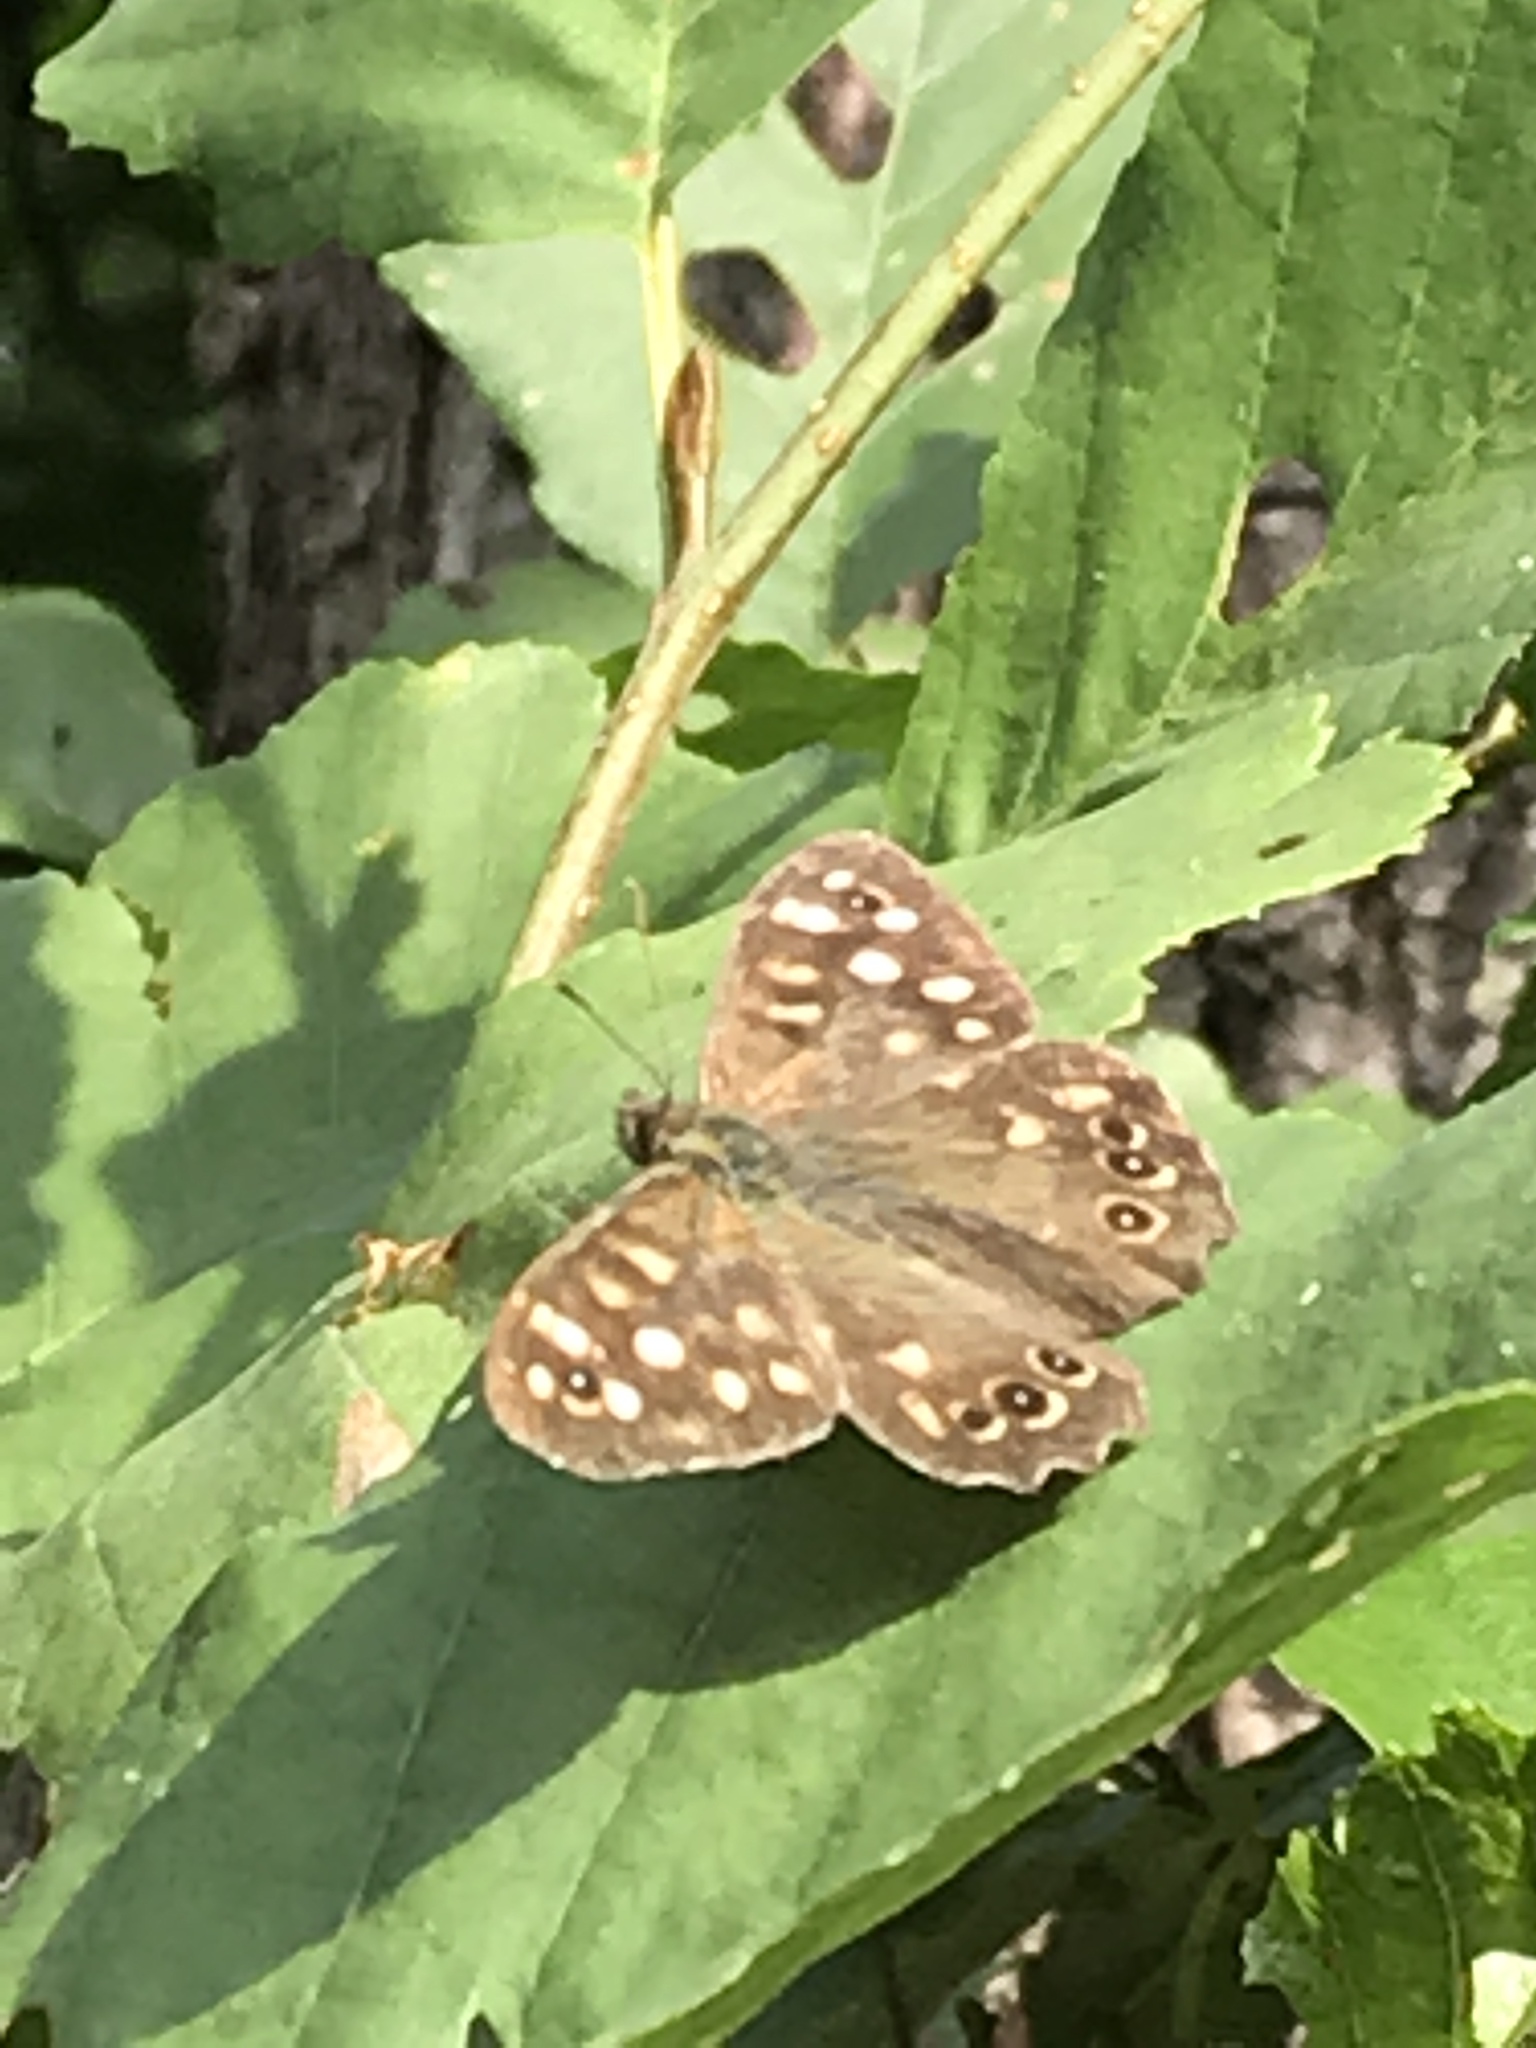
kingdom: Animalia
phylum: Arthropoda
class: Insecta
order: Lepidoptera
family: Nymphalidae
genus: Pararge
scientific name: Pararge aegeria
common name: Speckled wood
